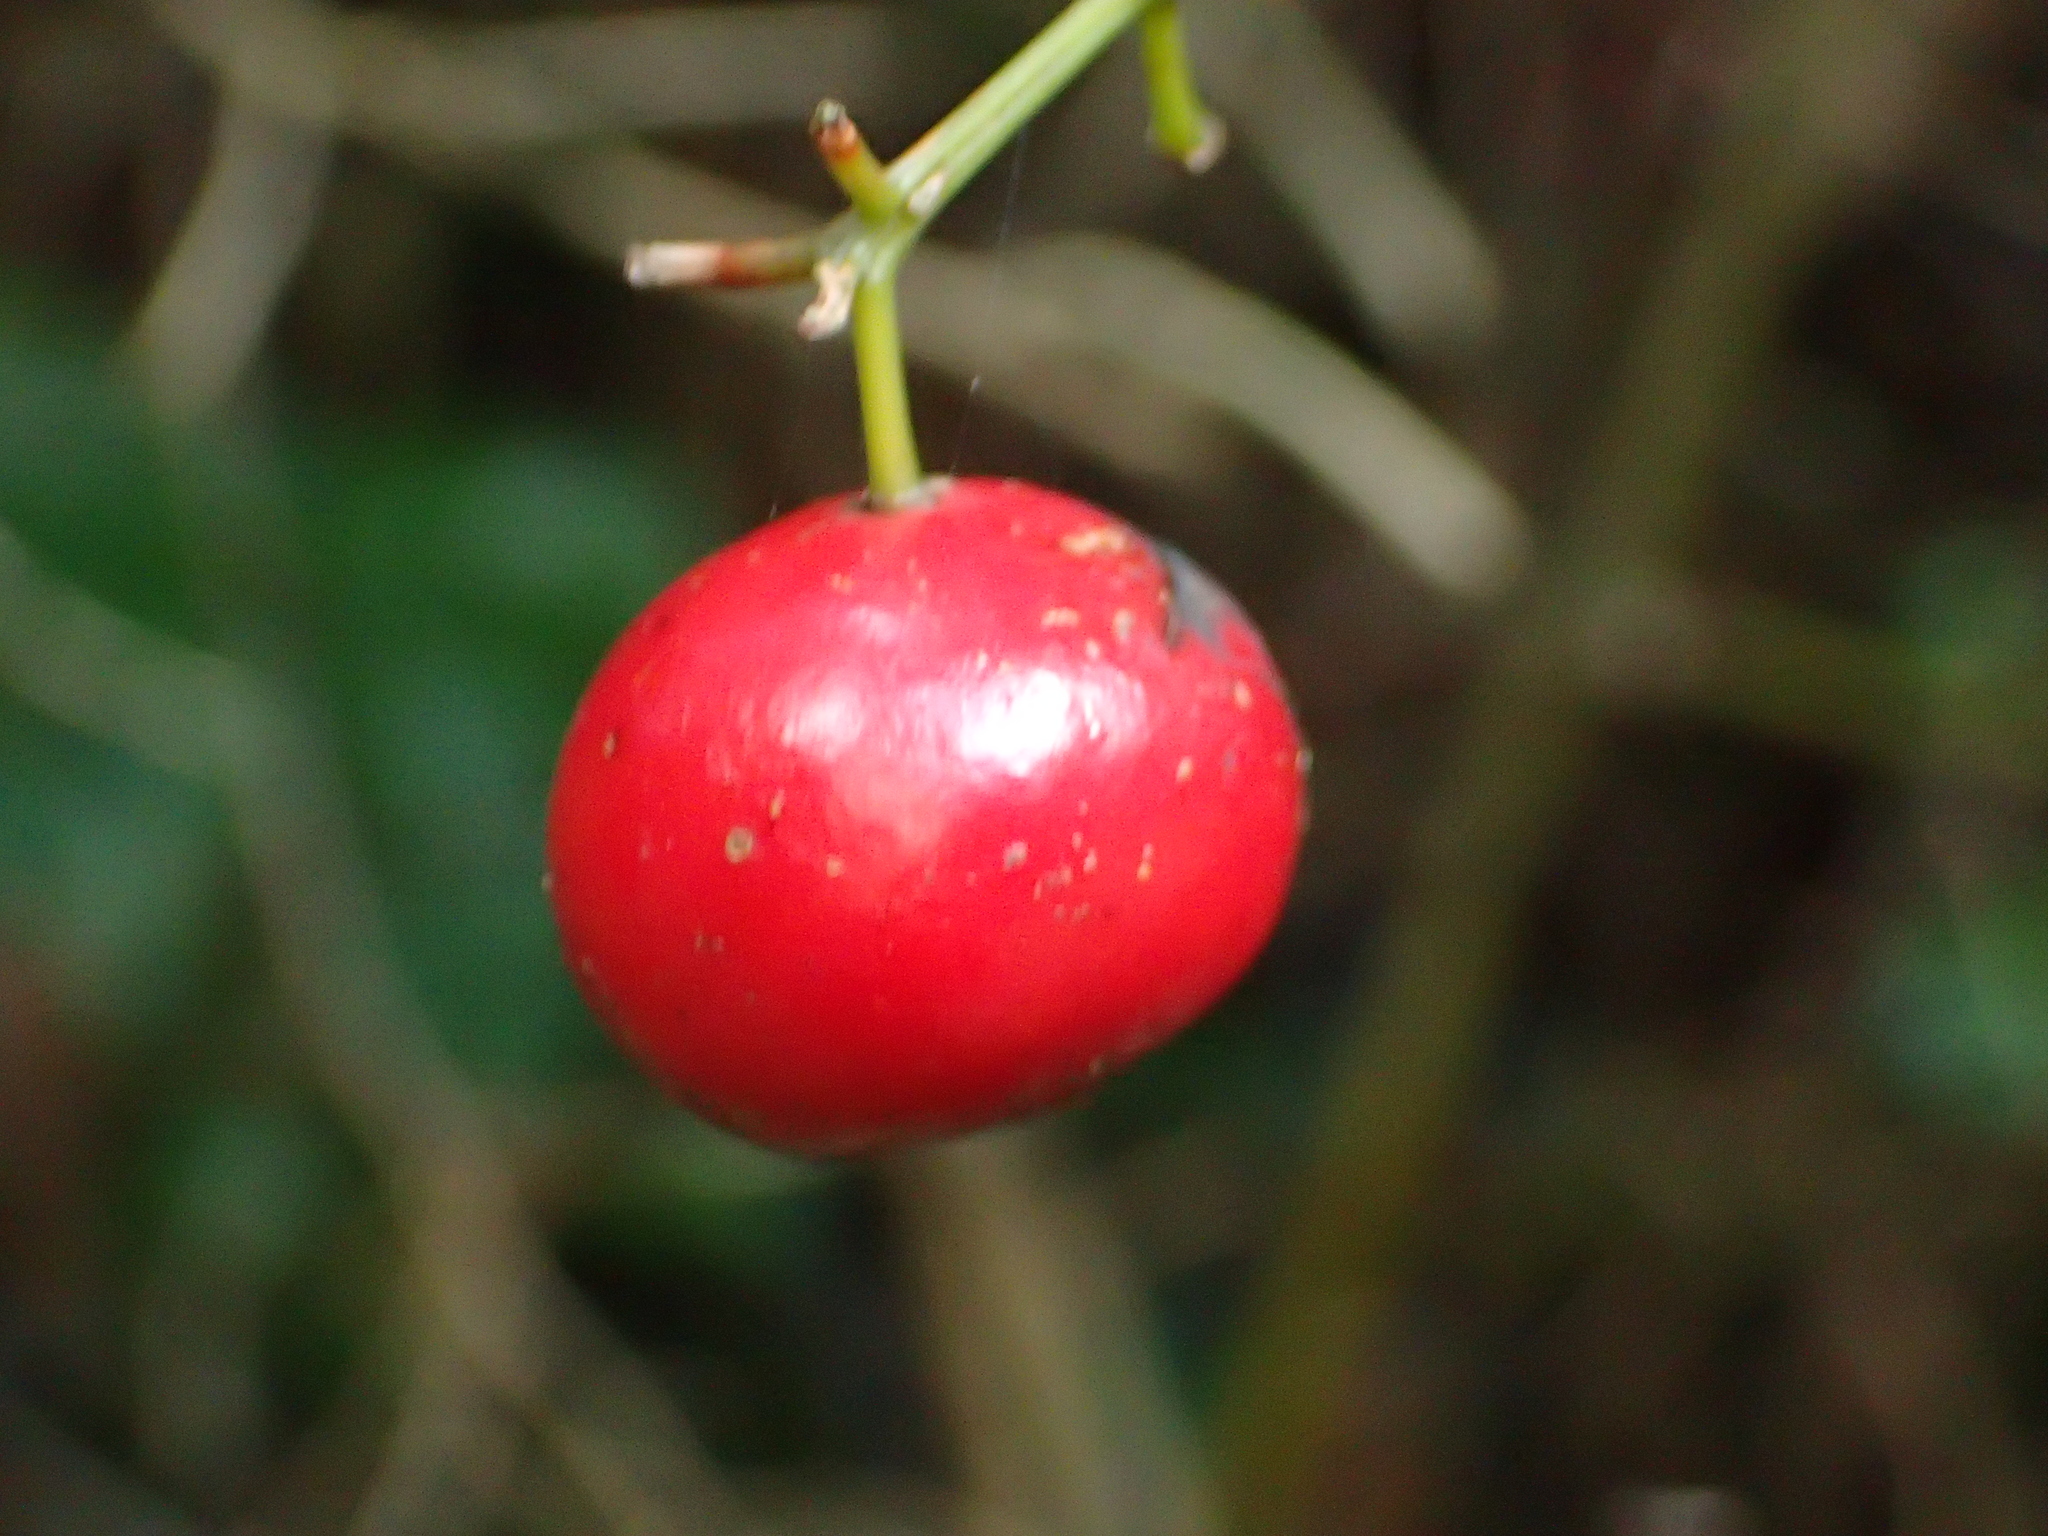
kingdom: Plantae
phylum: Tracheophyta
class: Liliopsida
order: Liliales
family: Ripogonaceae
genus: Ripogonum
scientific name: Ripogonum scandens
